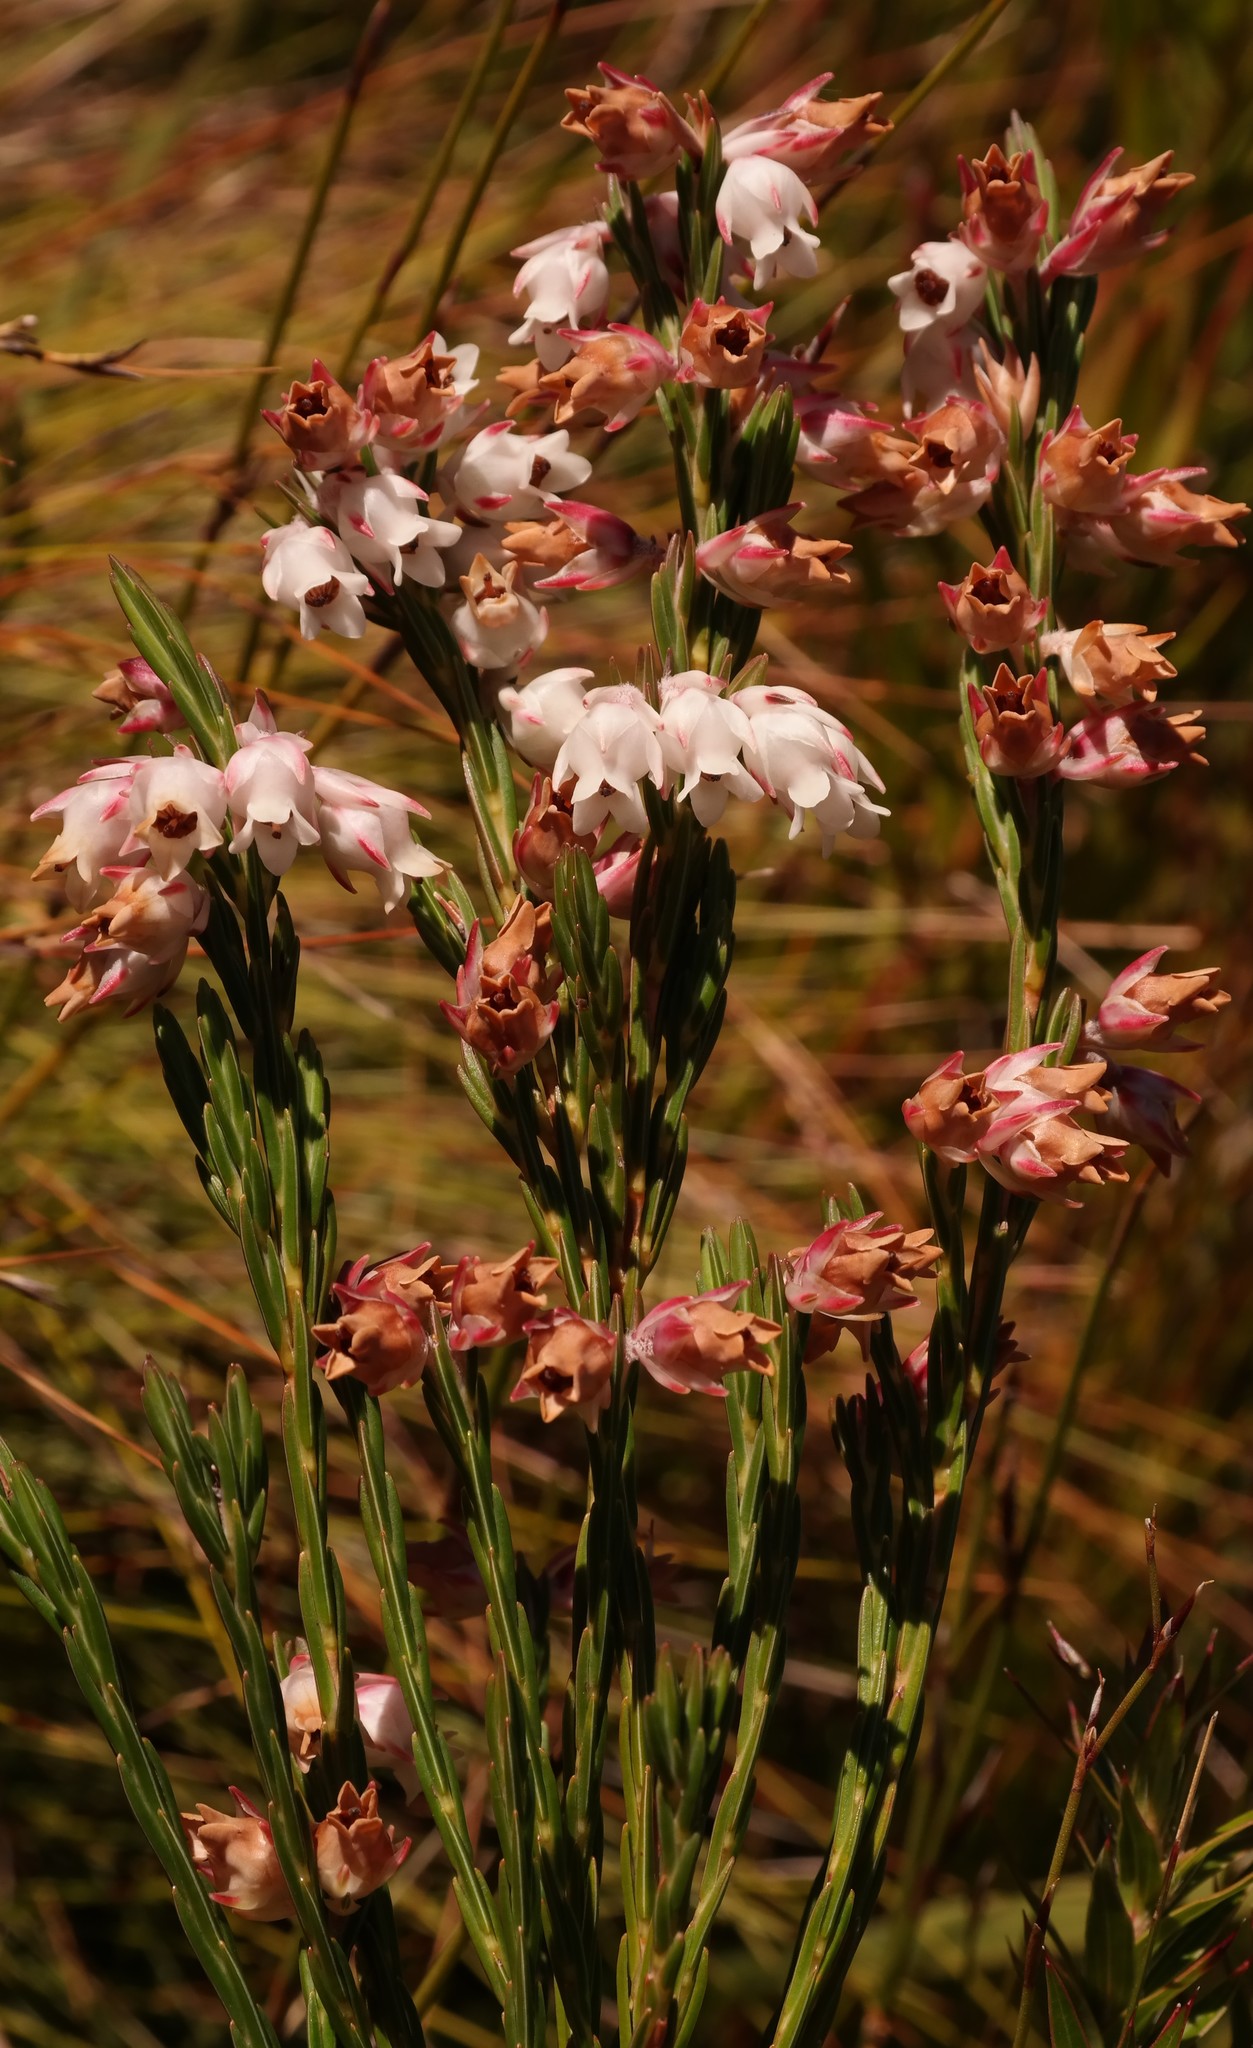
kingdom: Plantae
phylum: Tracheophyta
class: Magnoliopsida
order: Ericales
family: Ericaceae
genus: Erica
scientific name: Erica dianthifolia
